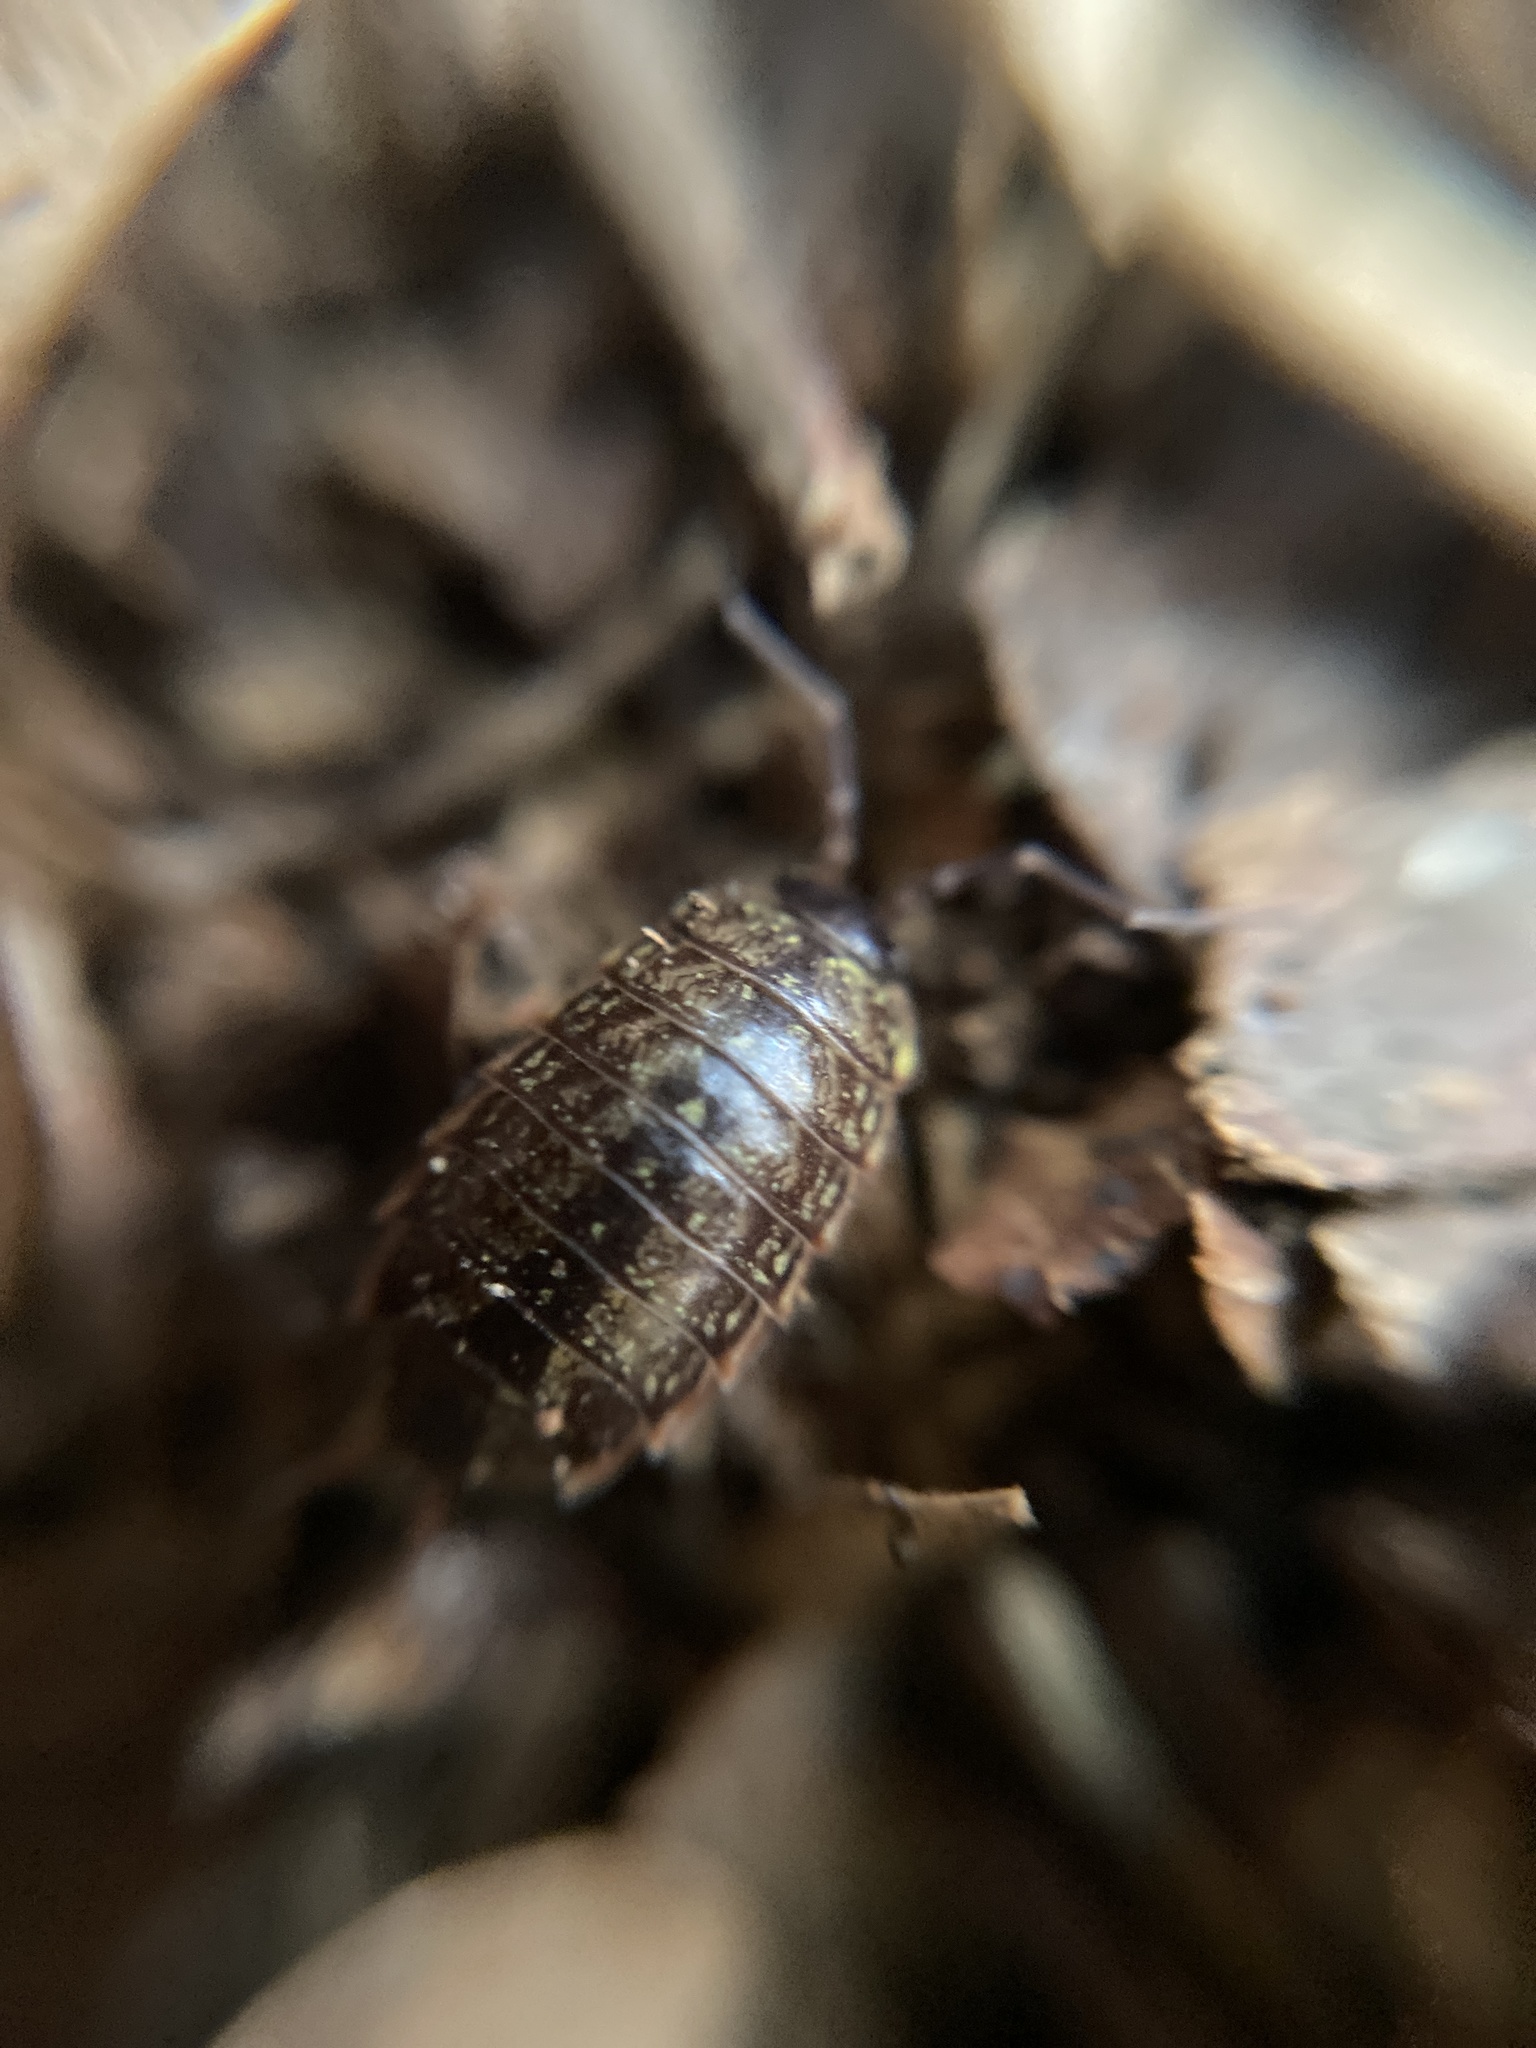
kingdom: Animalia
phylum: Arthropoda
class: Malacostraca
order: Isopoda
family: Philosciidae
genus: Philoscia
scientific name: Philoscia muscorum
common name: Common striped woodlouse
